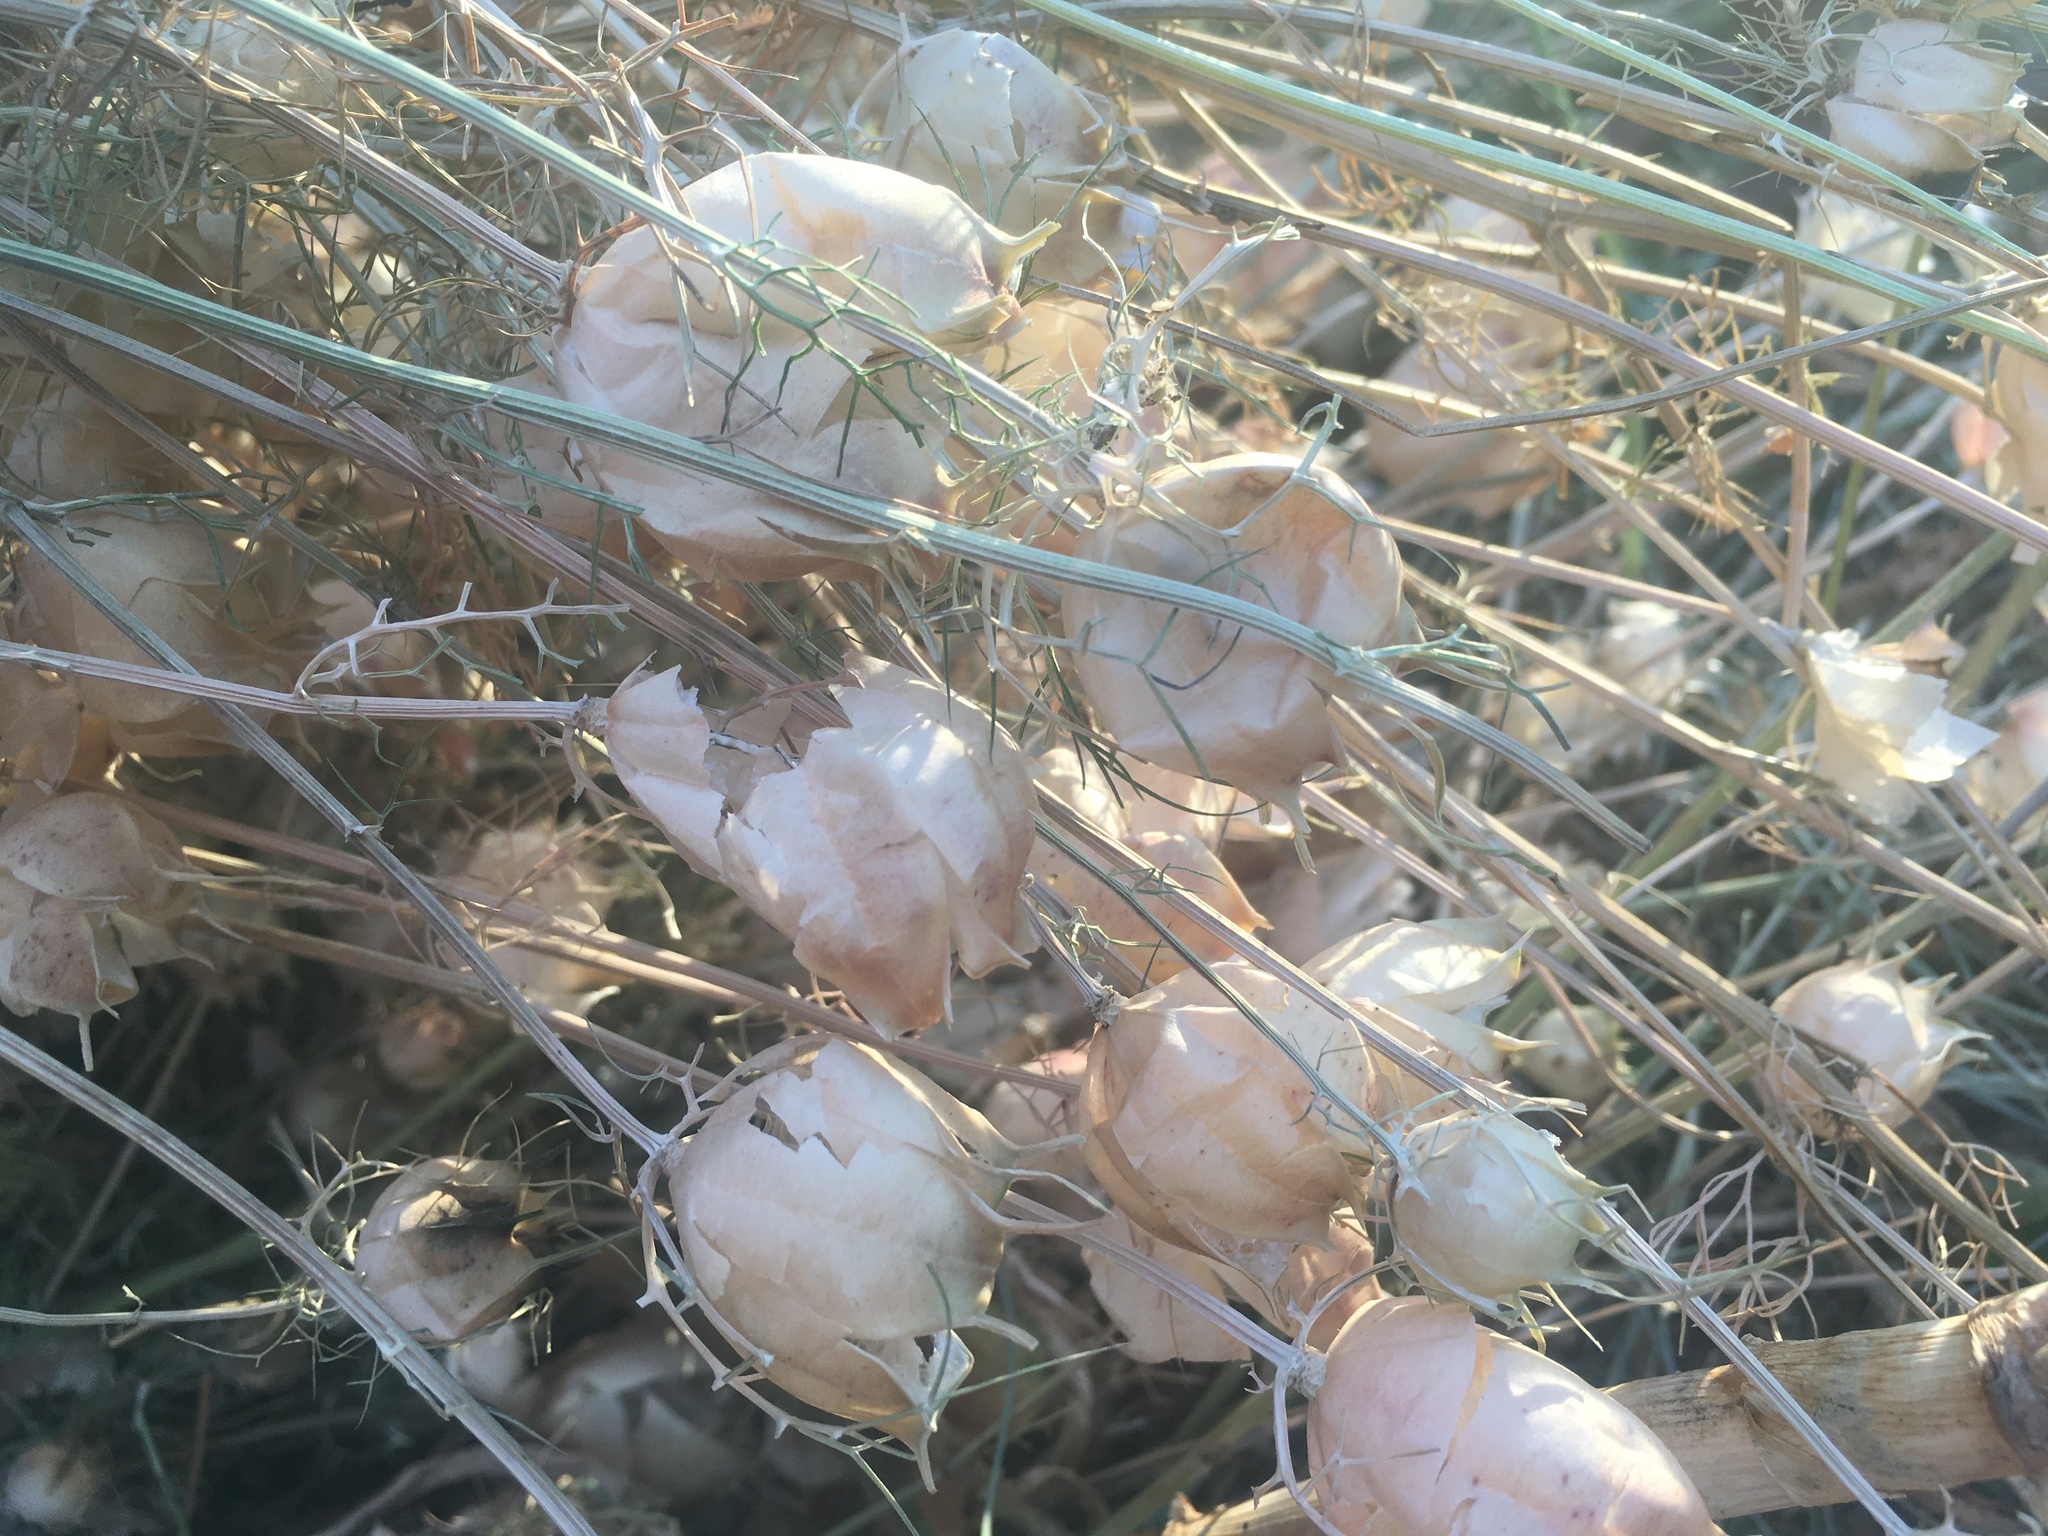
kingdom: Plantae
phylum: Tracheophyta
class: Magnoliopsida
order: Ranunculales
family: Ranunculaceae
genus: Nigella
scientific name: Nigella damascena
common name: Love-in-a-mist
